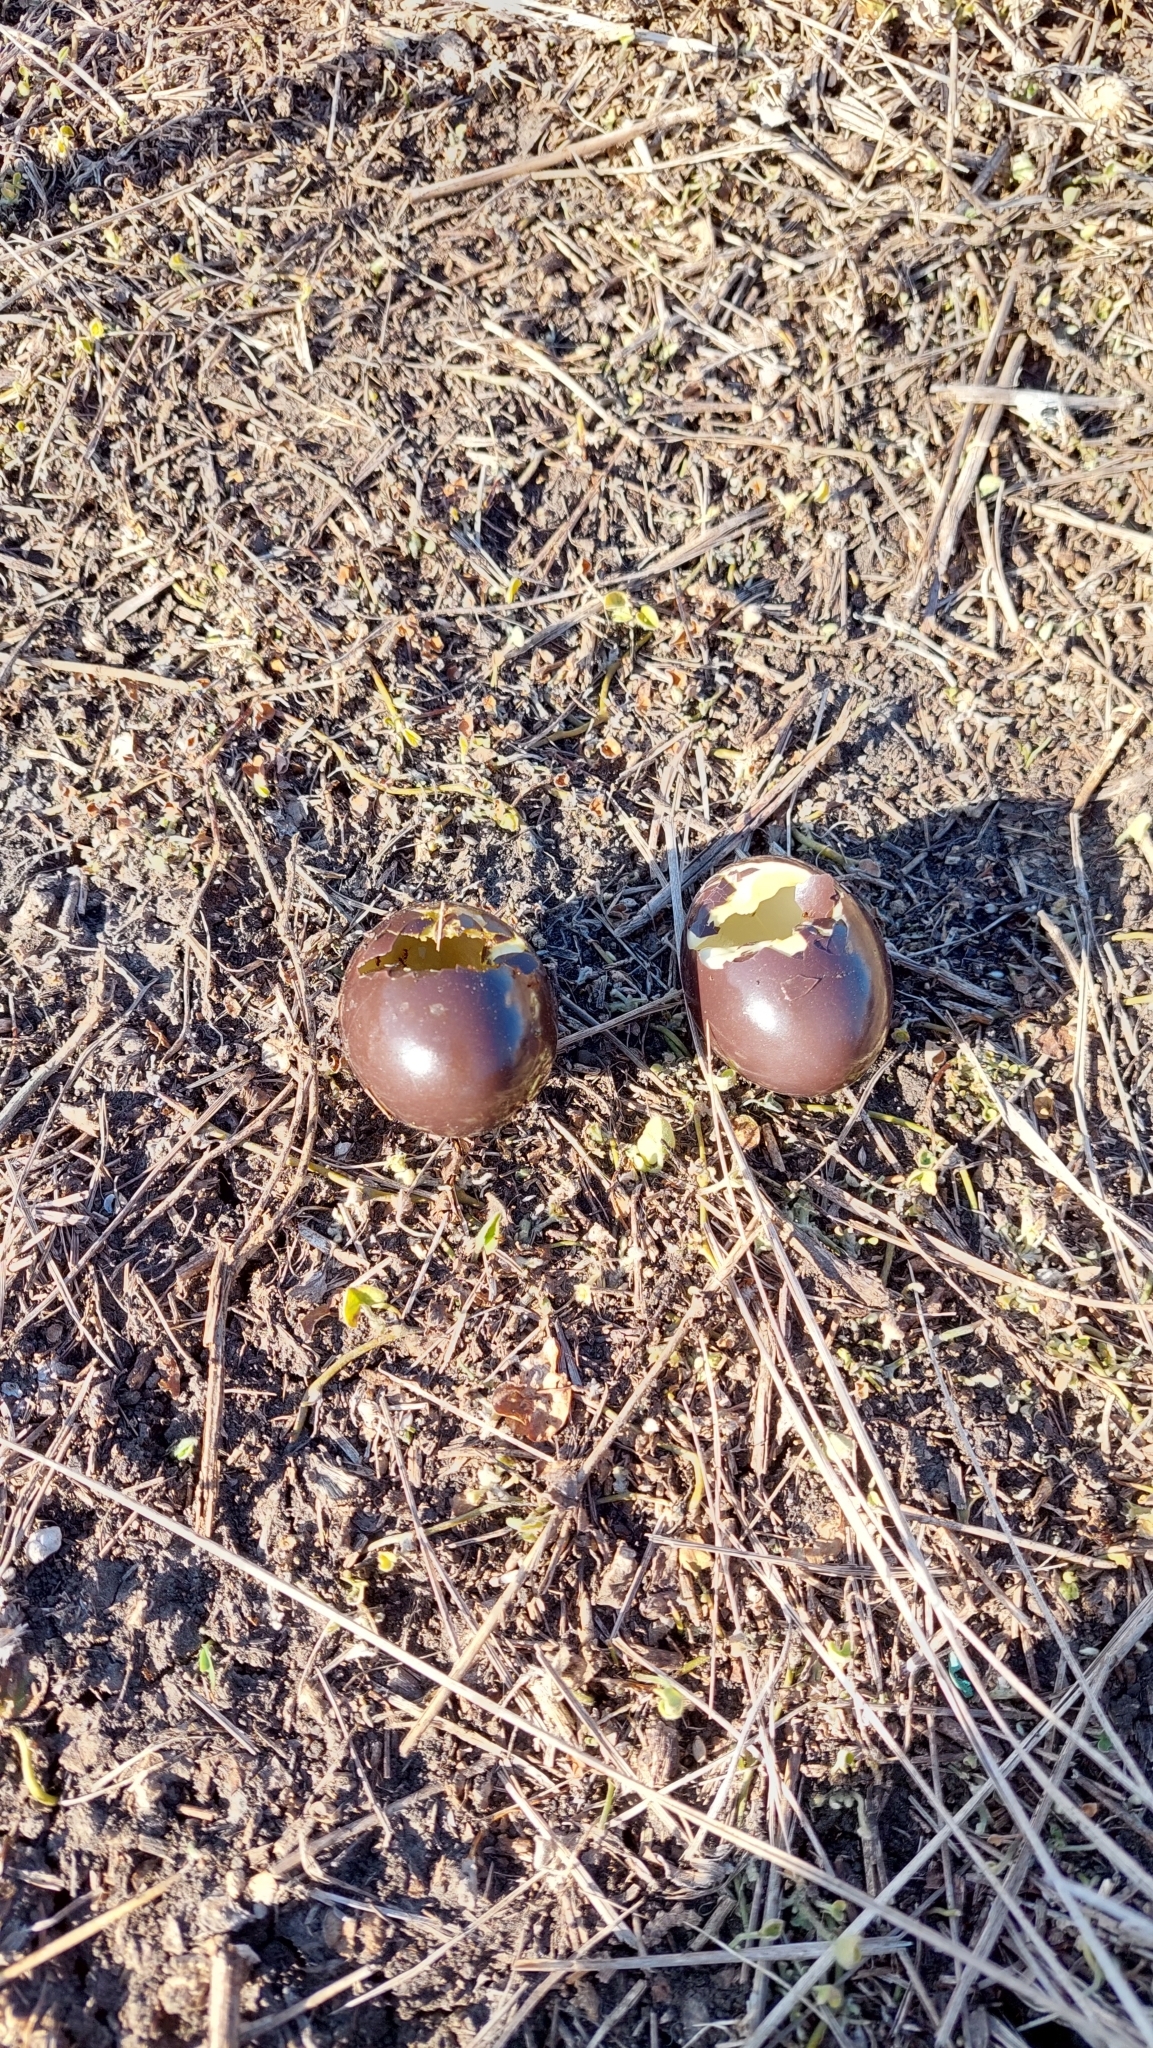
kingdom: Animalia
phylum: Chordata
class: Aves
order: Tinamiformes
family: Tinamidae
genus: Nothura
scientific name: Nothura maculosa
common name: Spotted nothura
